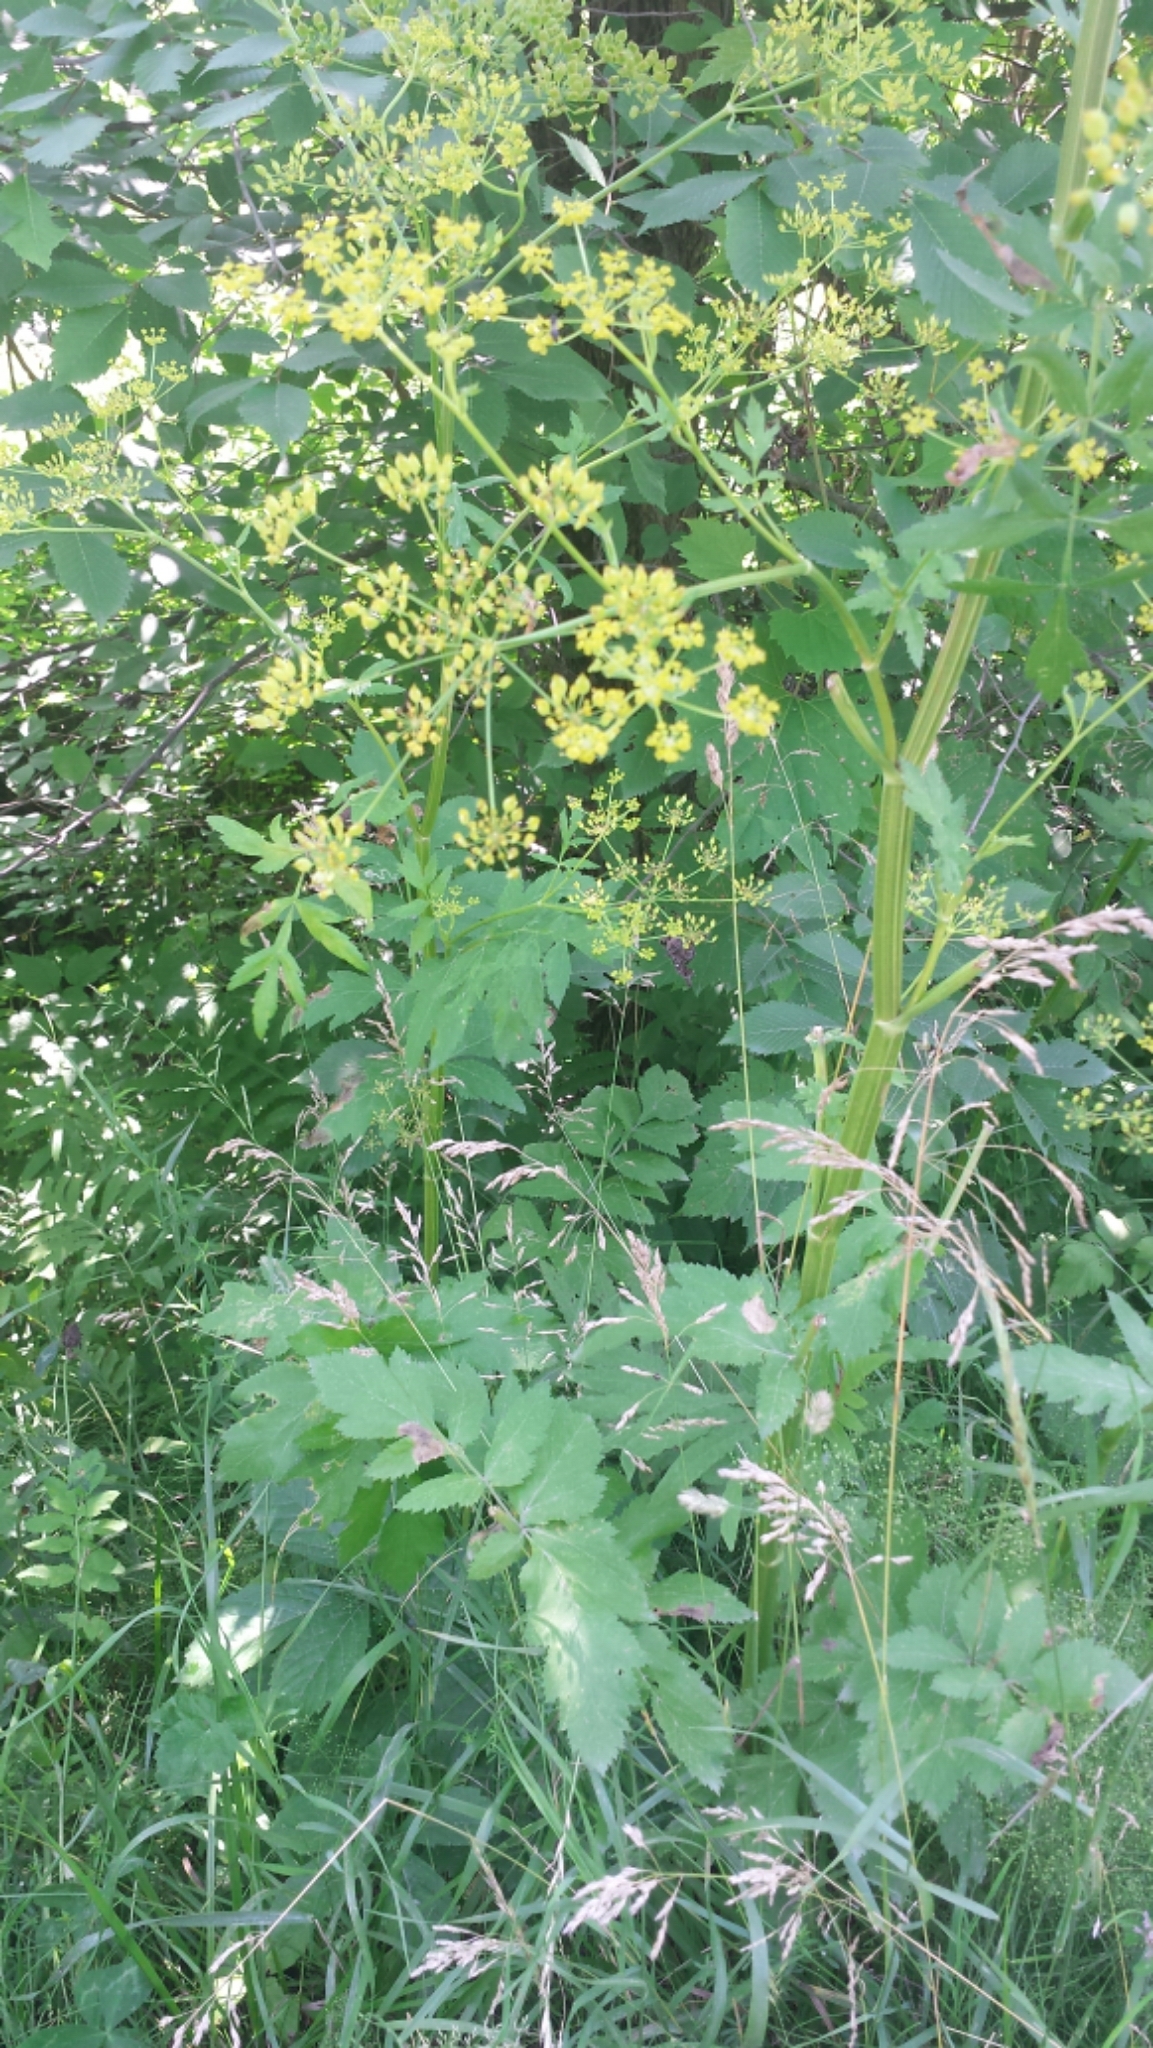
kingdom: Plantae
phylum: Tracheophyta
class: Magnoliopsida
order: Apiales
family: Apiaceae
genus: Pastinaca
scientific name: Pastinaca sativa
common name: Wild parsnip
